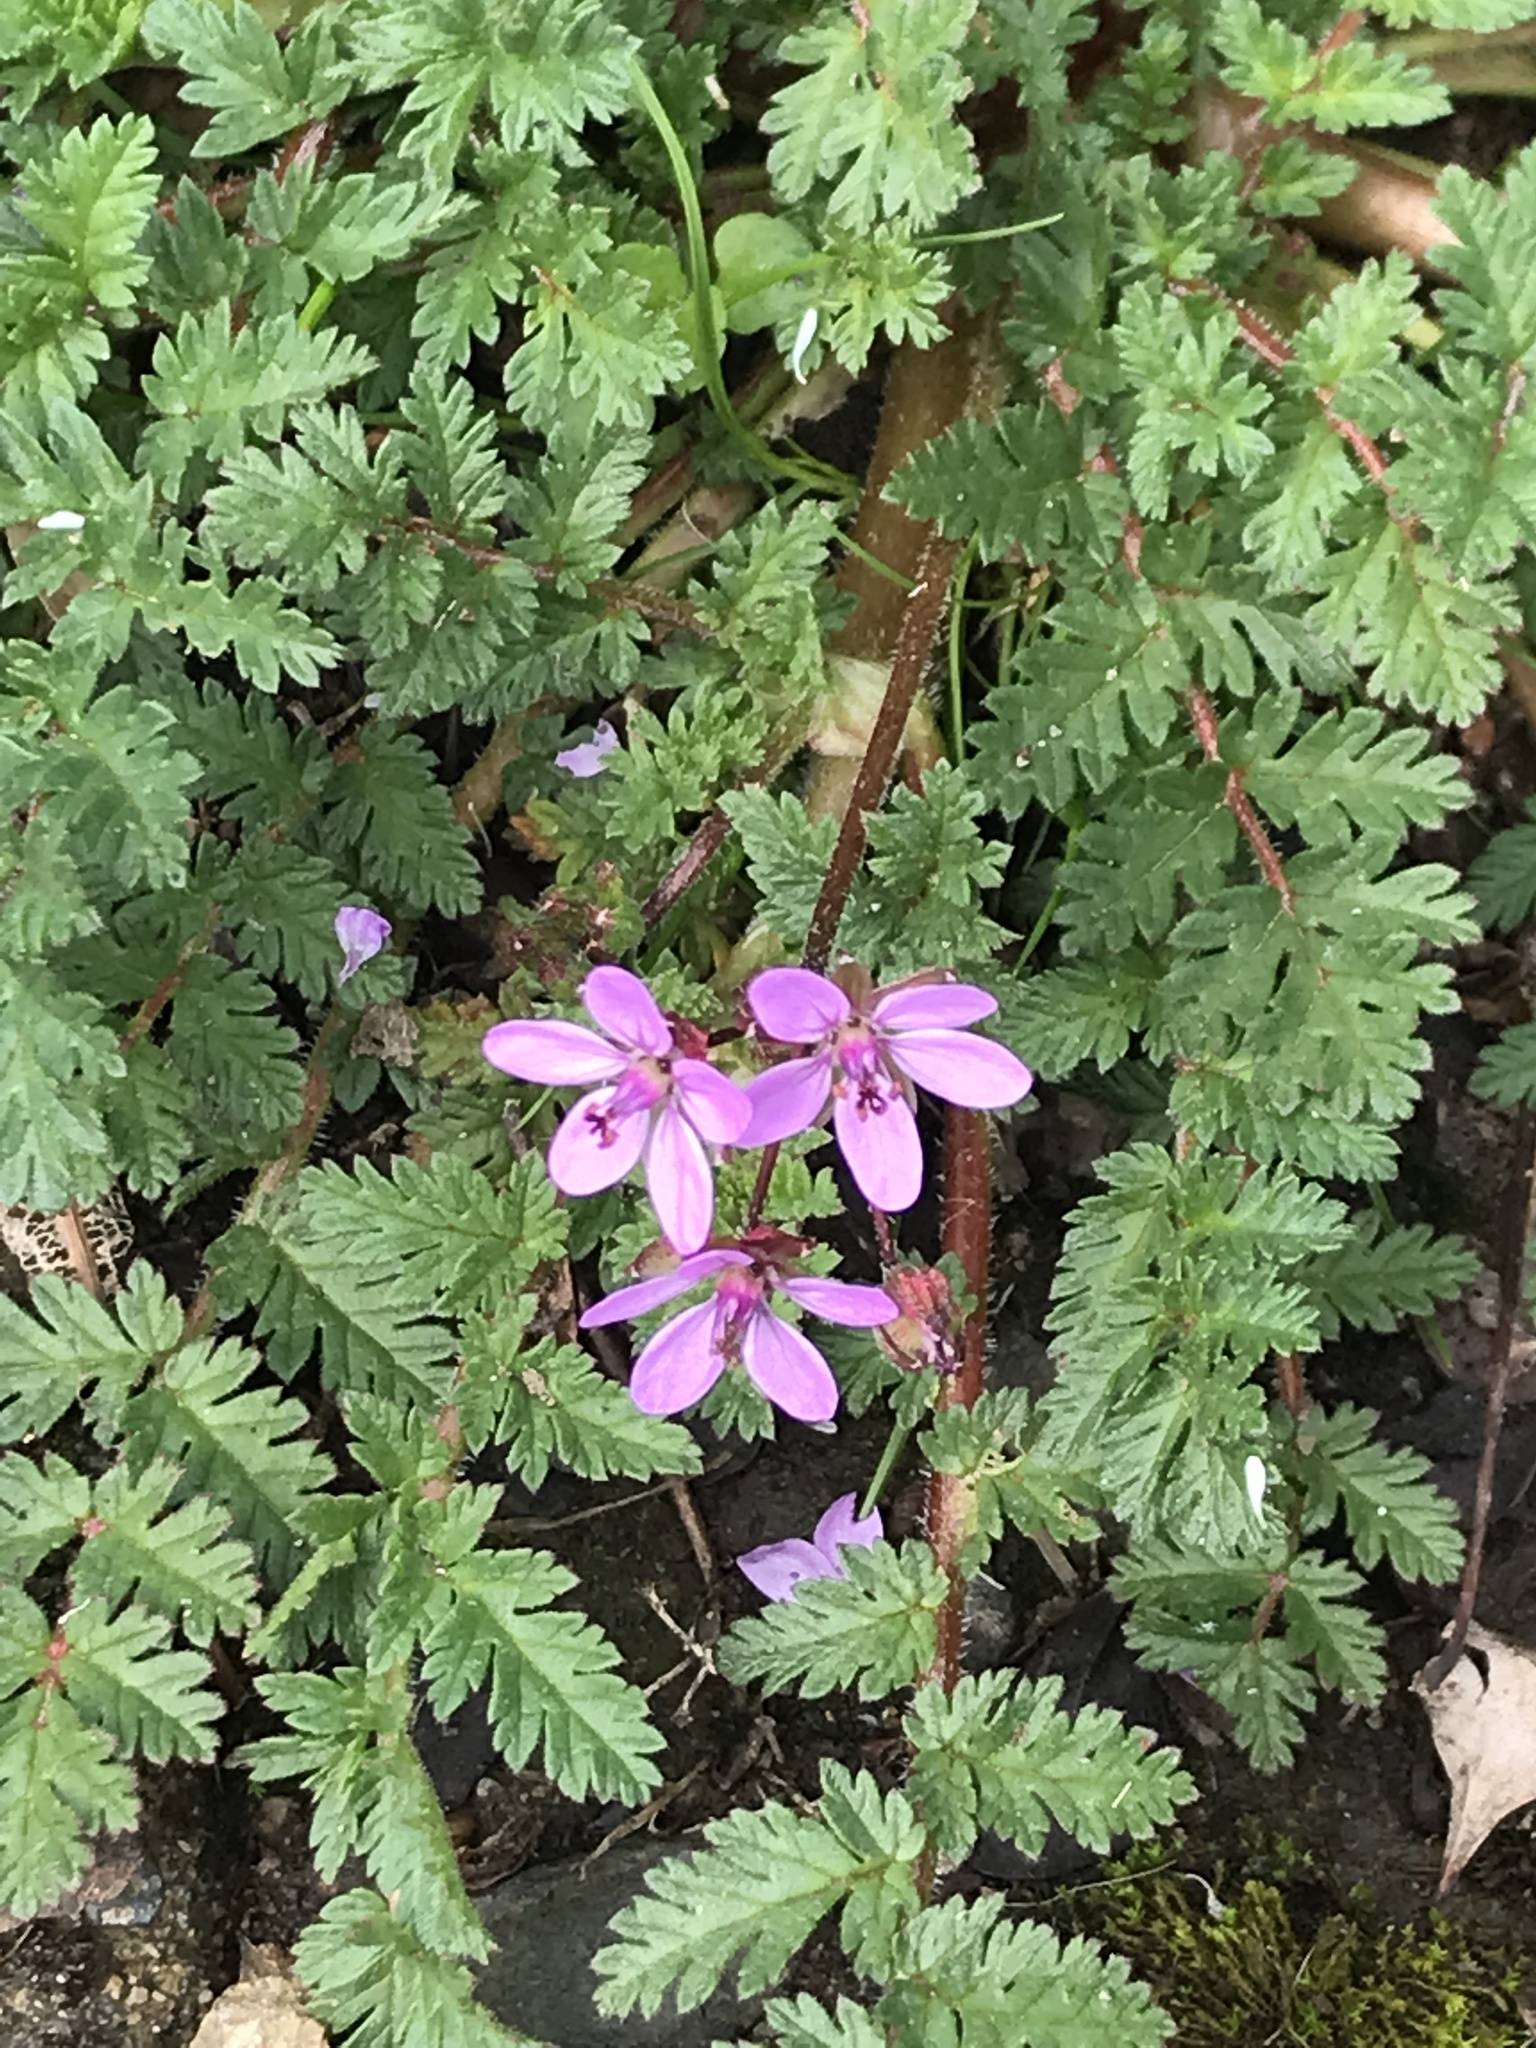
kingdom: Plantae
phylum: Tracheophyta
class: Magnoliopsida
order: Geraniales
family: Geraniaceae
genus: Erodium
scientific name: Erodium cicutarium
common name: Common stork's-bill
